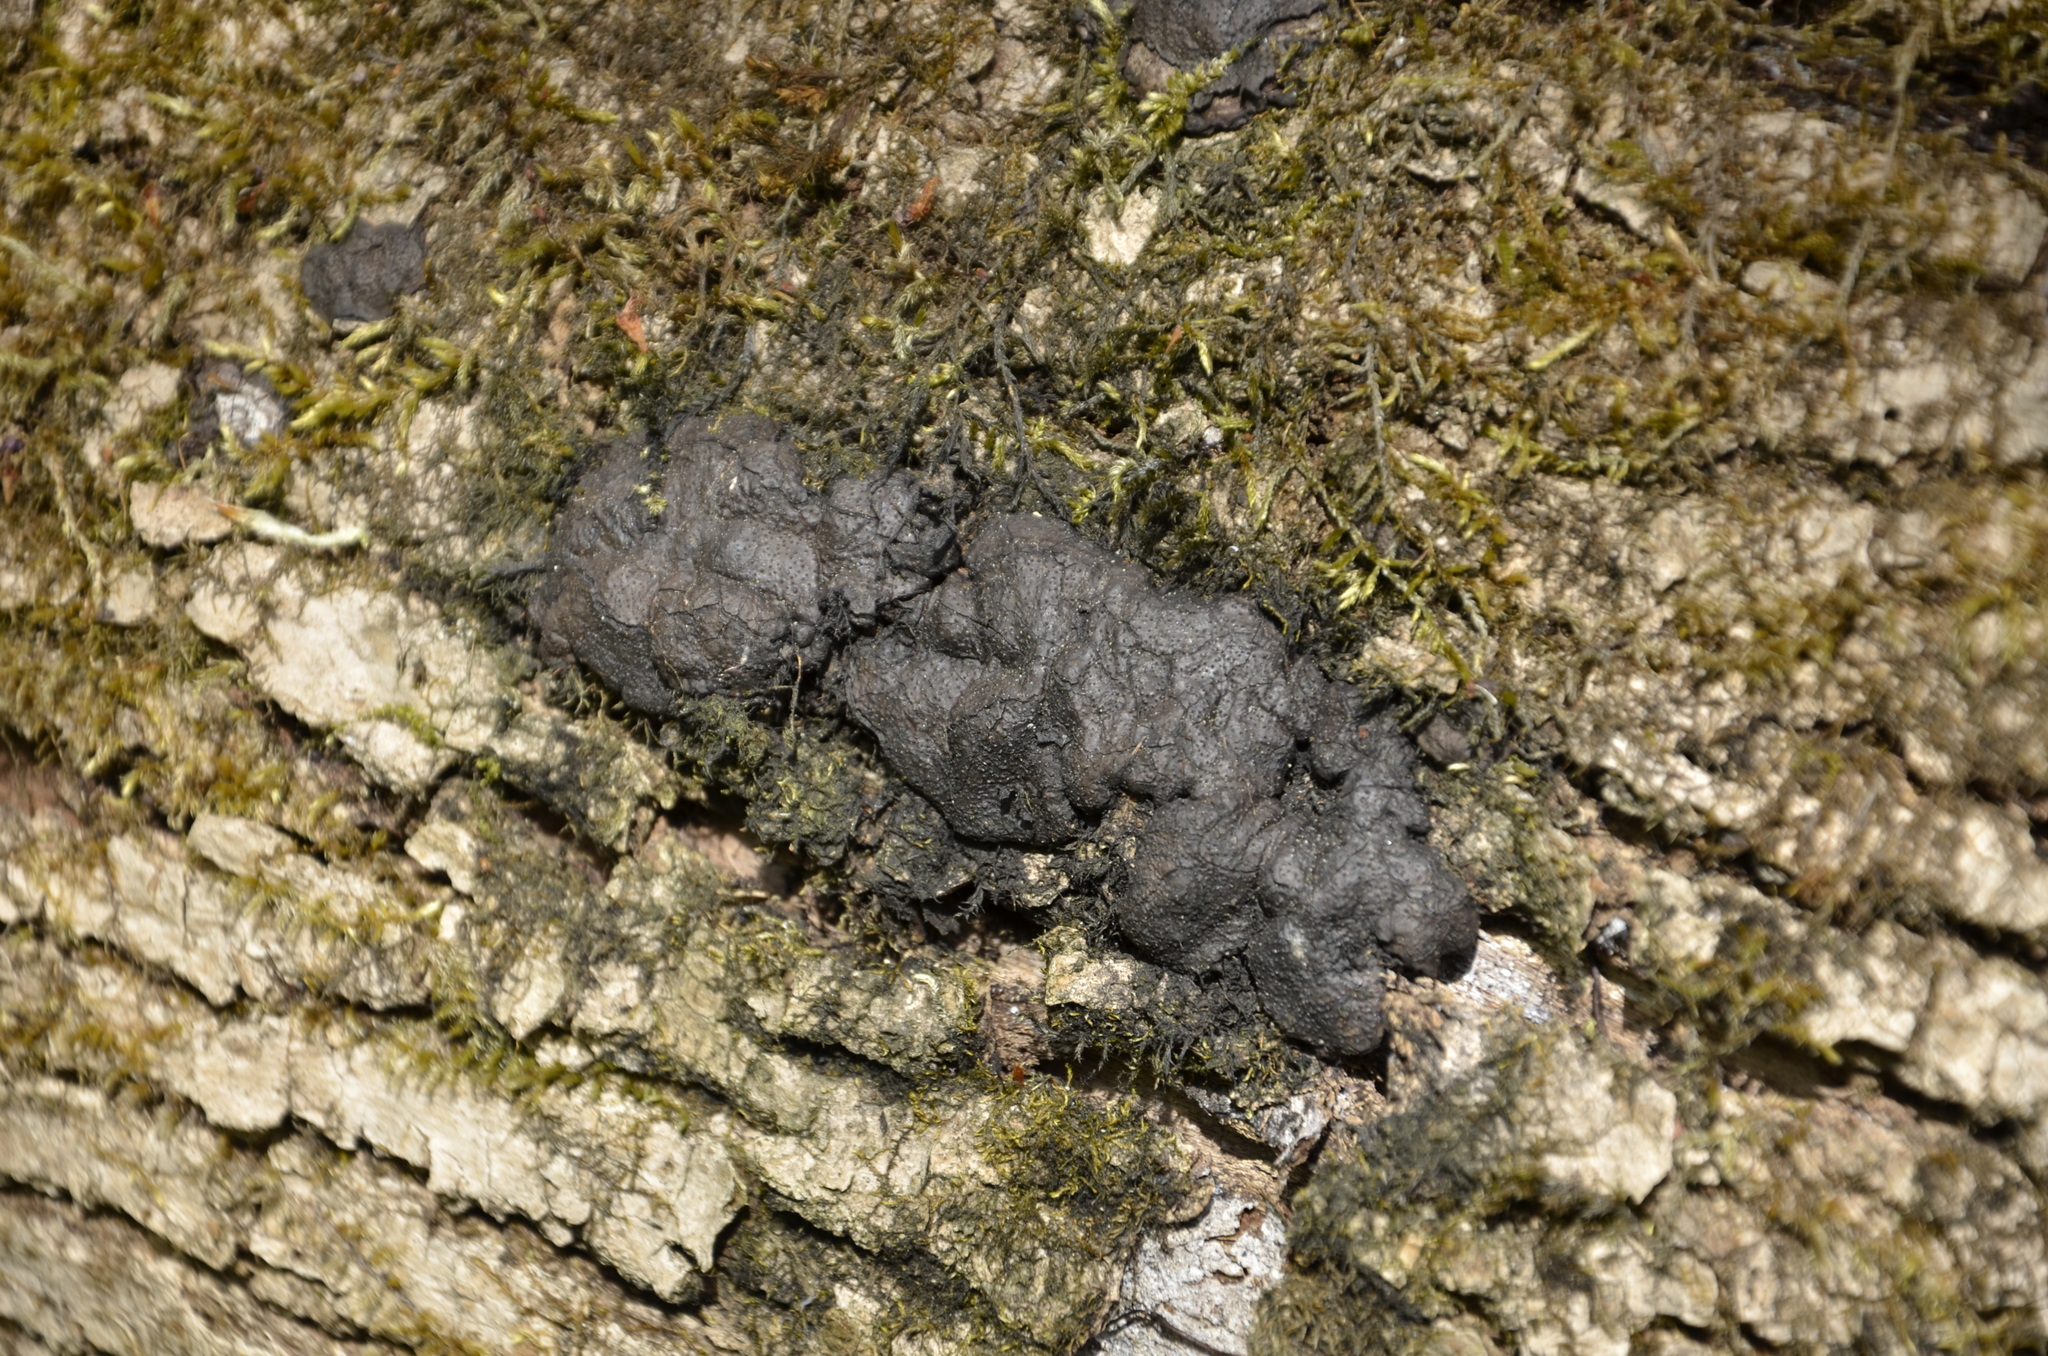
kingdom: Fungi
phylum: Ascomycota
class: Sordariomycetes
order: Xylariales
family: Xylariaceae
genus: Kretzschmaria
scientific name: Kretzschmaria deusta
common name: Brittle cinder
